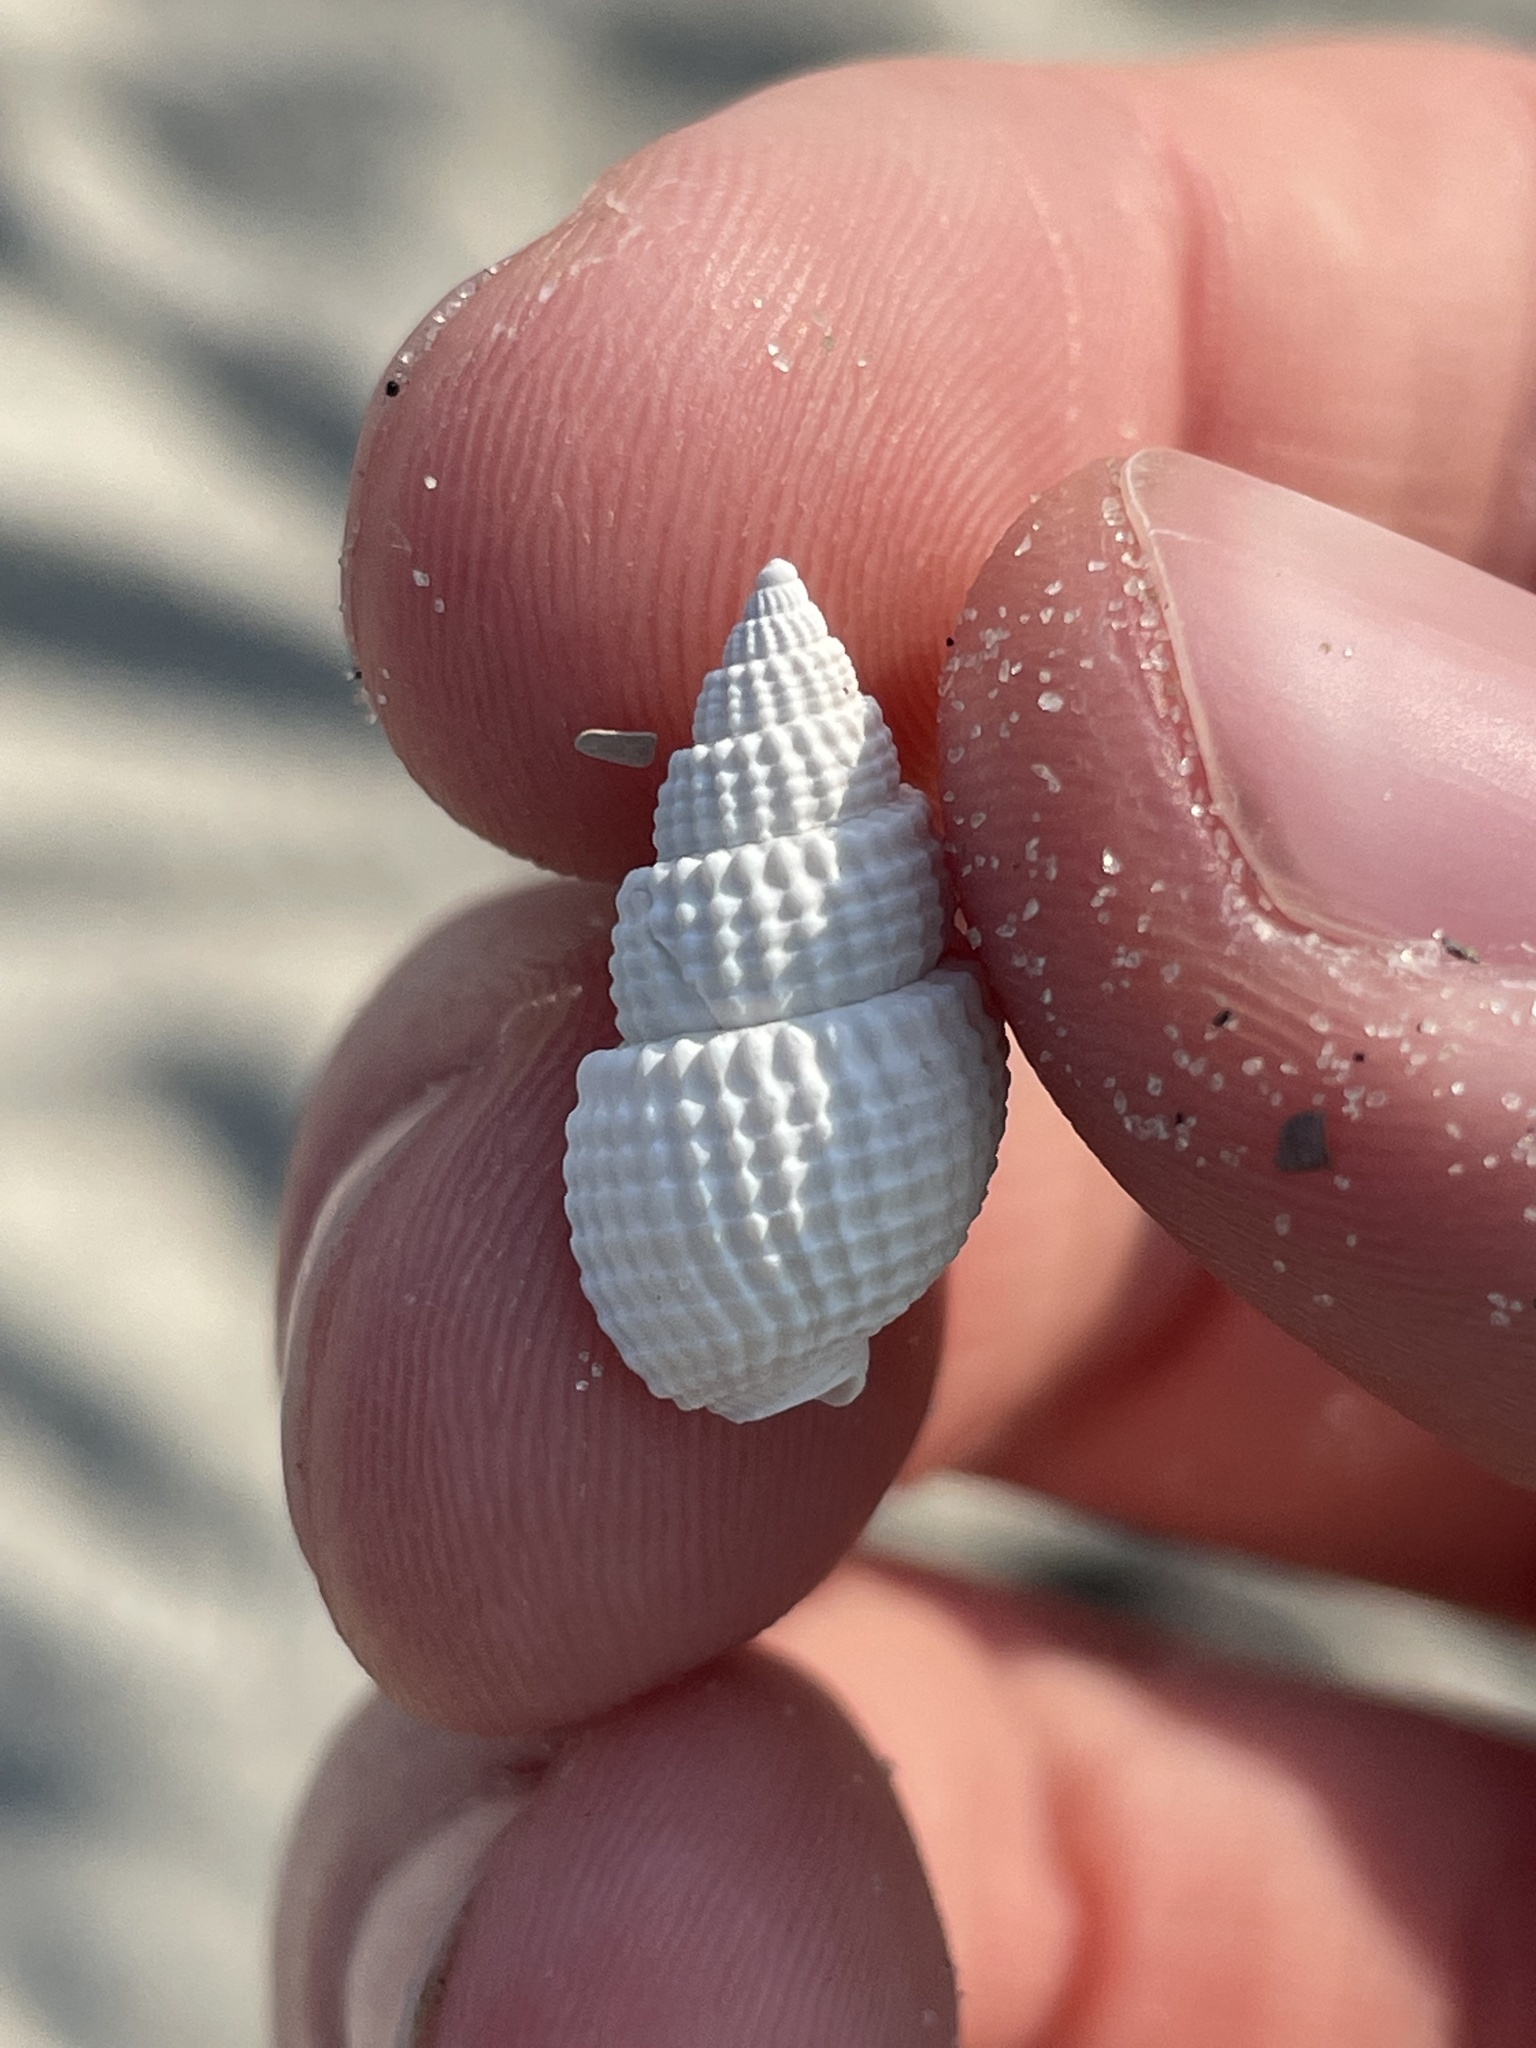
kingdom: Animalia
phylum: Mollusca
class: Gastropoda
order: Neogastropoda
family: Nassariidae
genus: Ilyanassa
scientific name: Ilyanassa trivittata
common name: Three-line mudsnail
